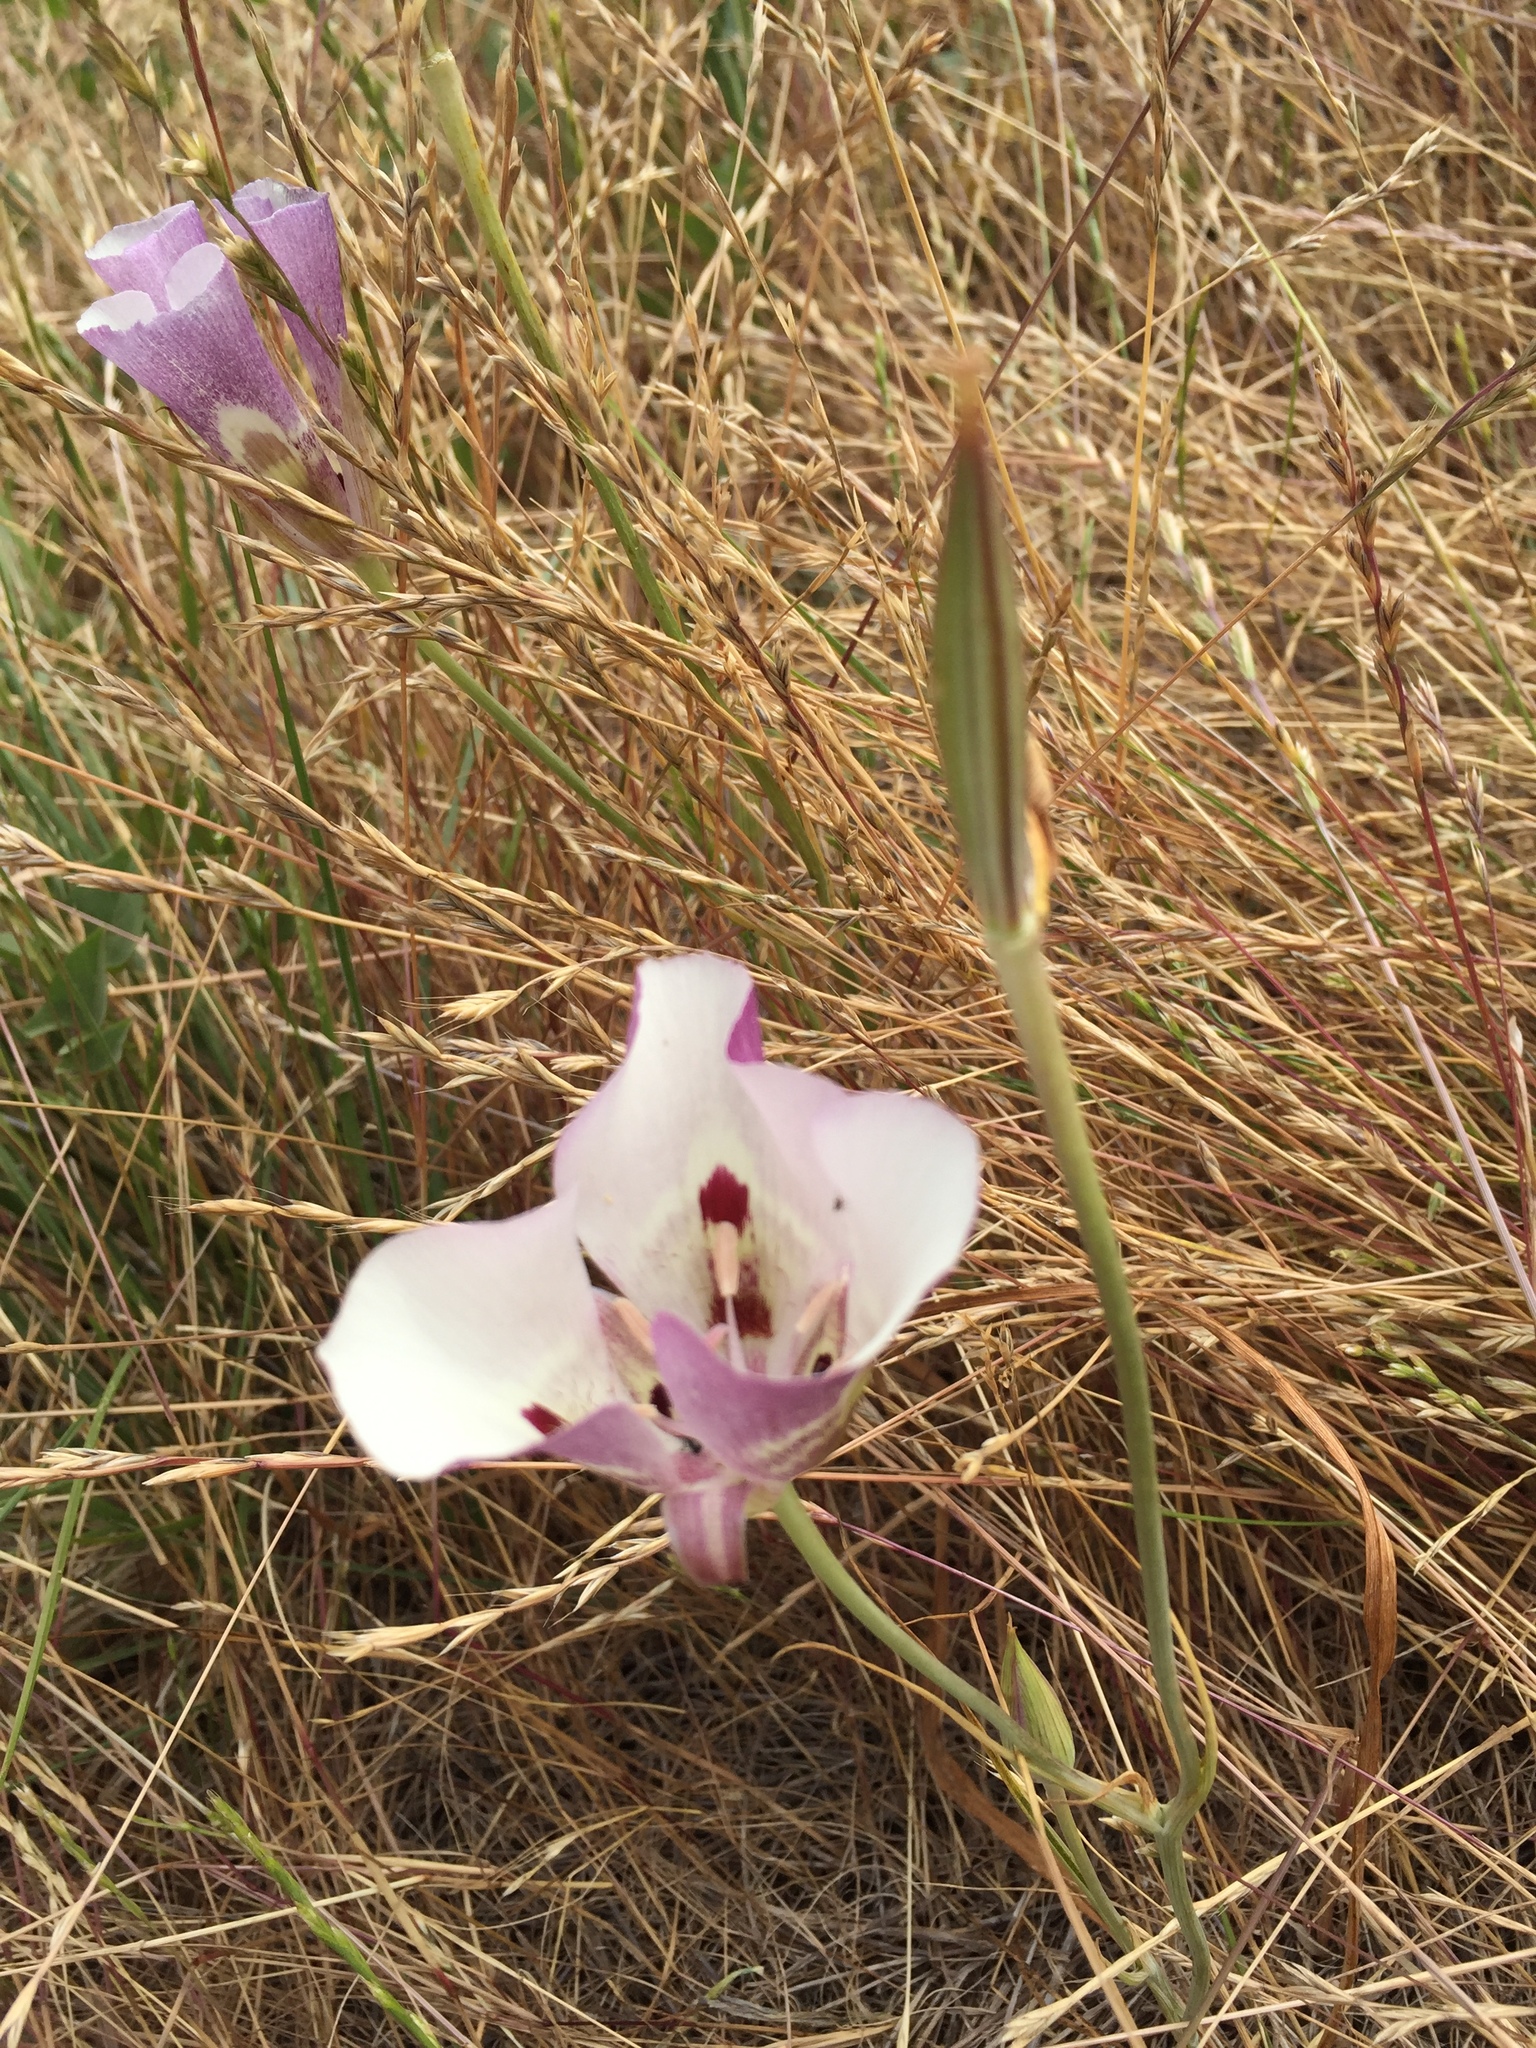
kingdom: Plantae
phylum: Tracheophyta
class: Liliopsida
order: Liliales
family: Liliaceae
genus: Calochortus
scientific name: Calochortus argillosus
